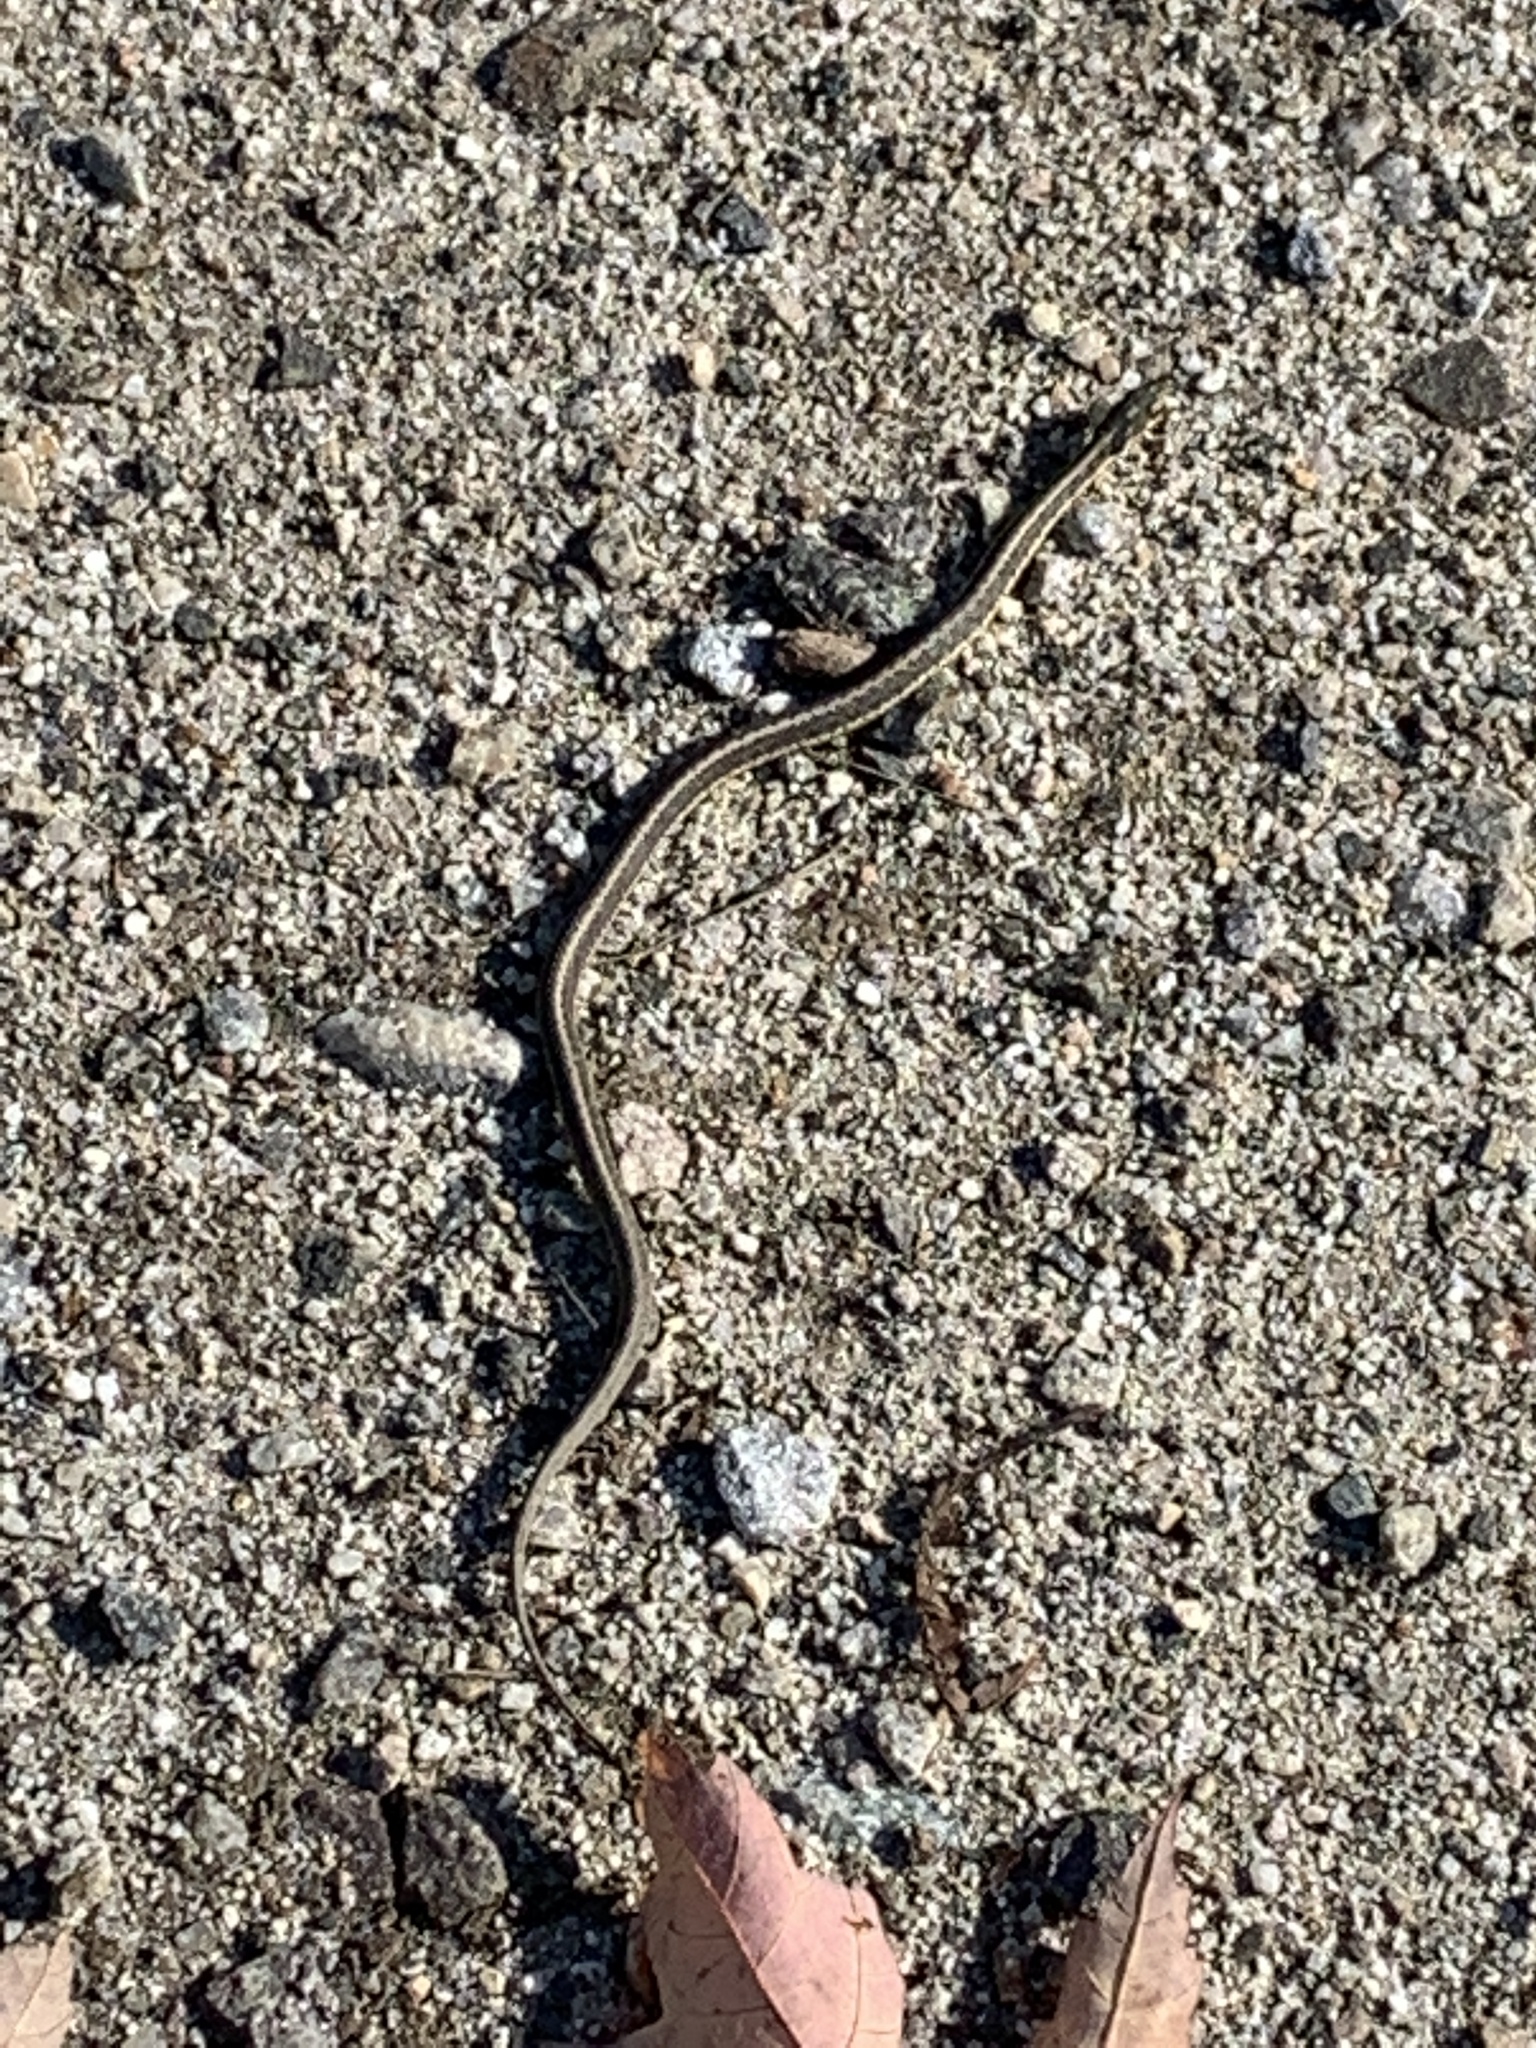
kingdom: Animalia
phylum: Chordata
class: Squamata
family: Colubridae
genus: Thamnophis
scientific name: Thamnophis sirtalis
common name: Common garter snake
